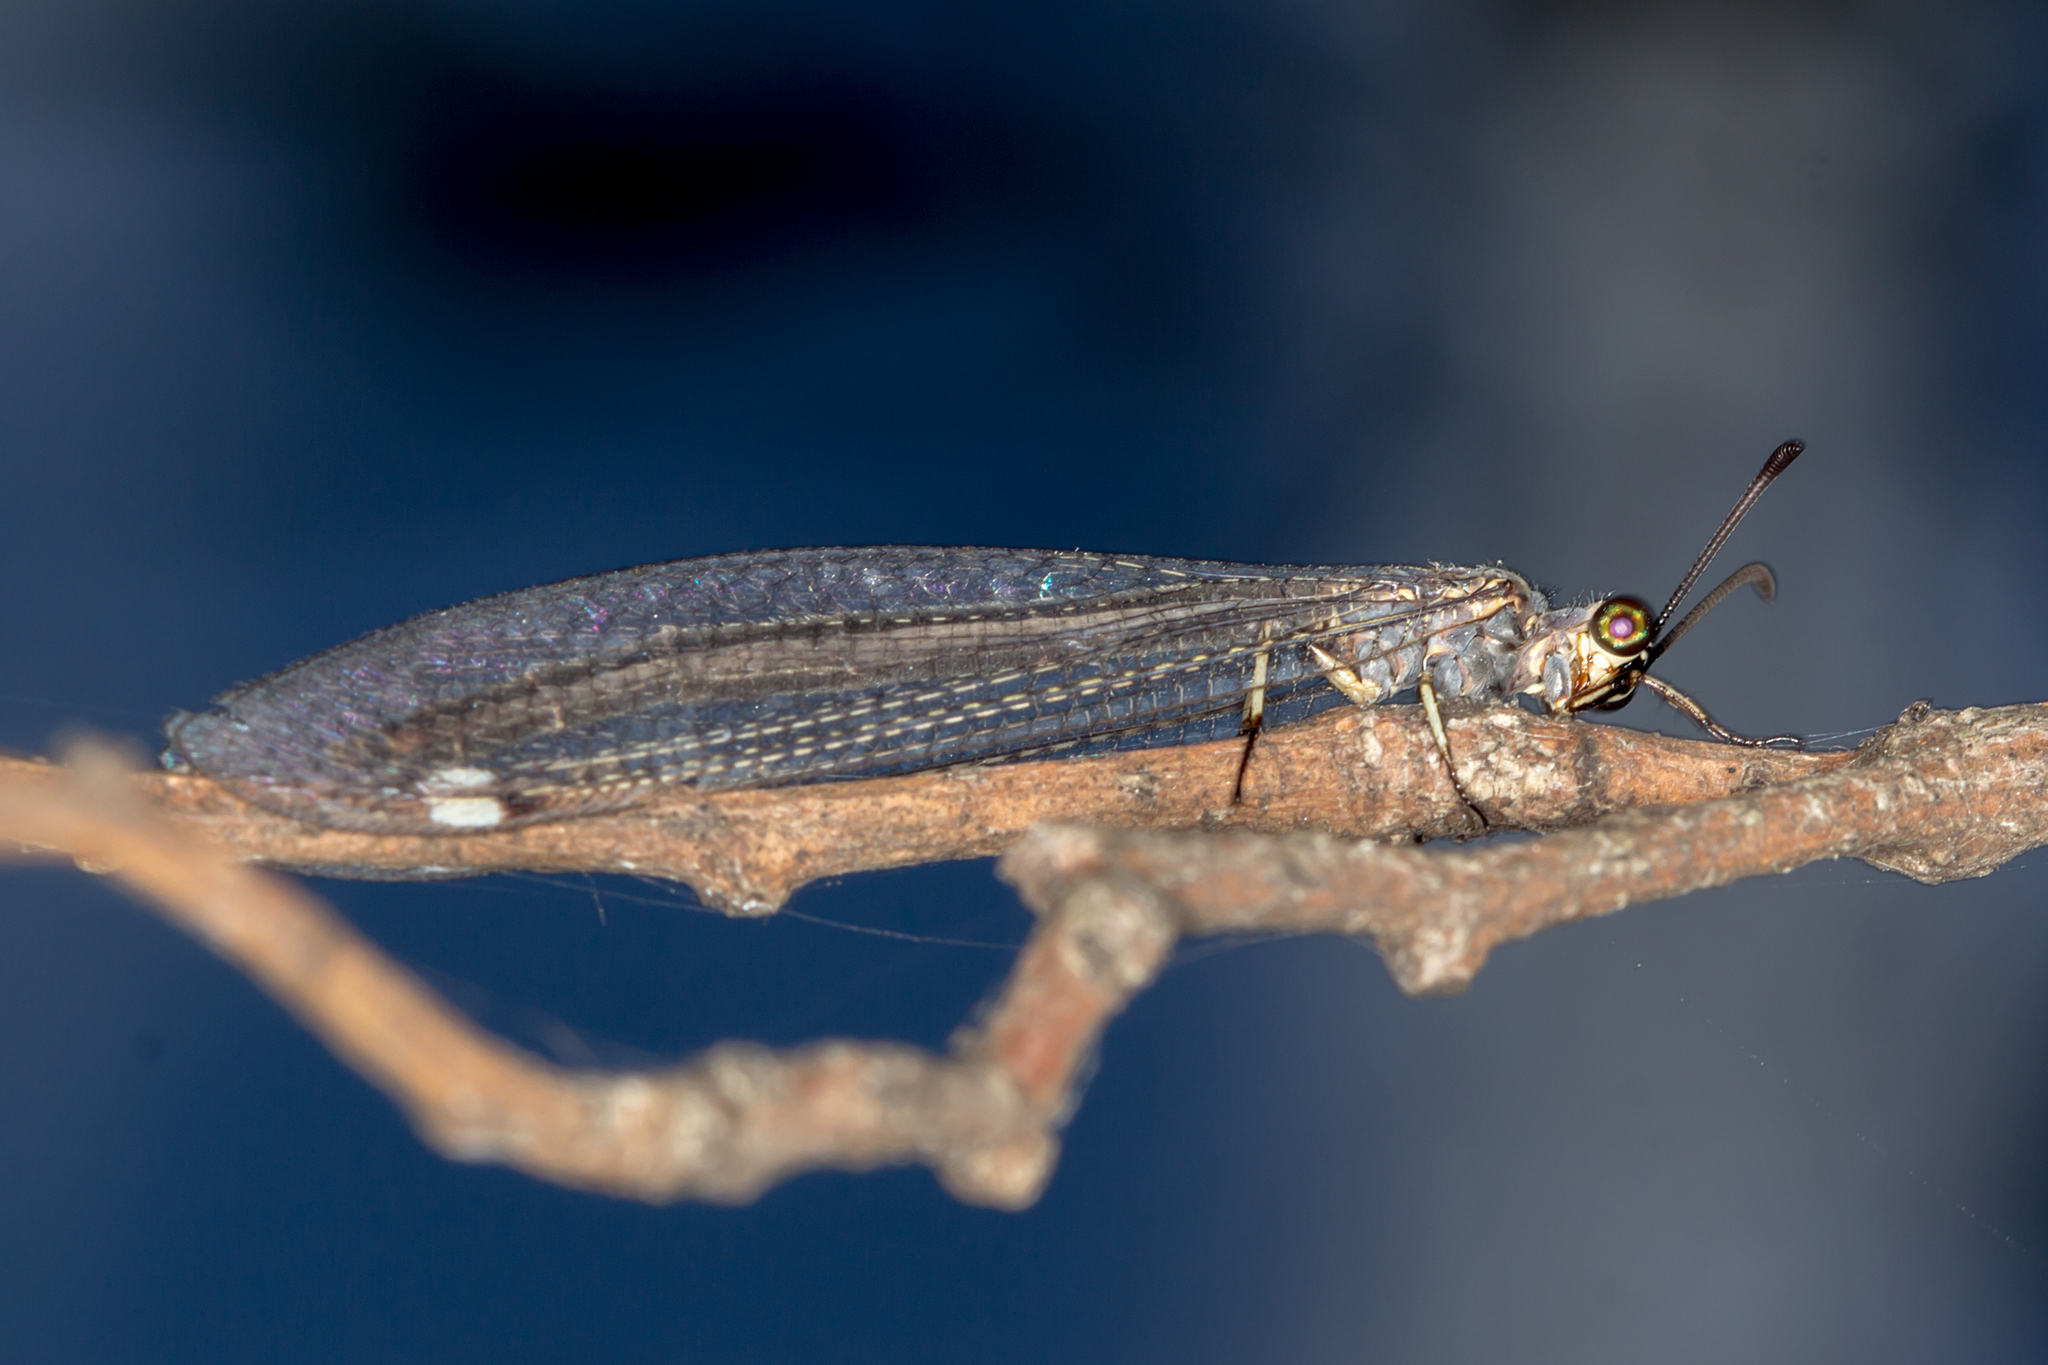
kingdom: Animalia
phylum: Arthropoda
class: Insecta
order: Neuroptera
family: Myrmeleontidae
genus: Myrmeleon
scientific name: Myrmeleon acer
